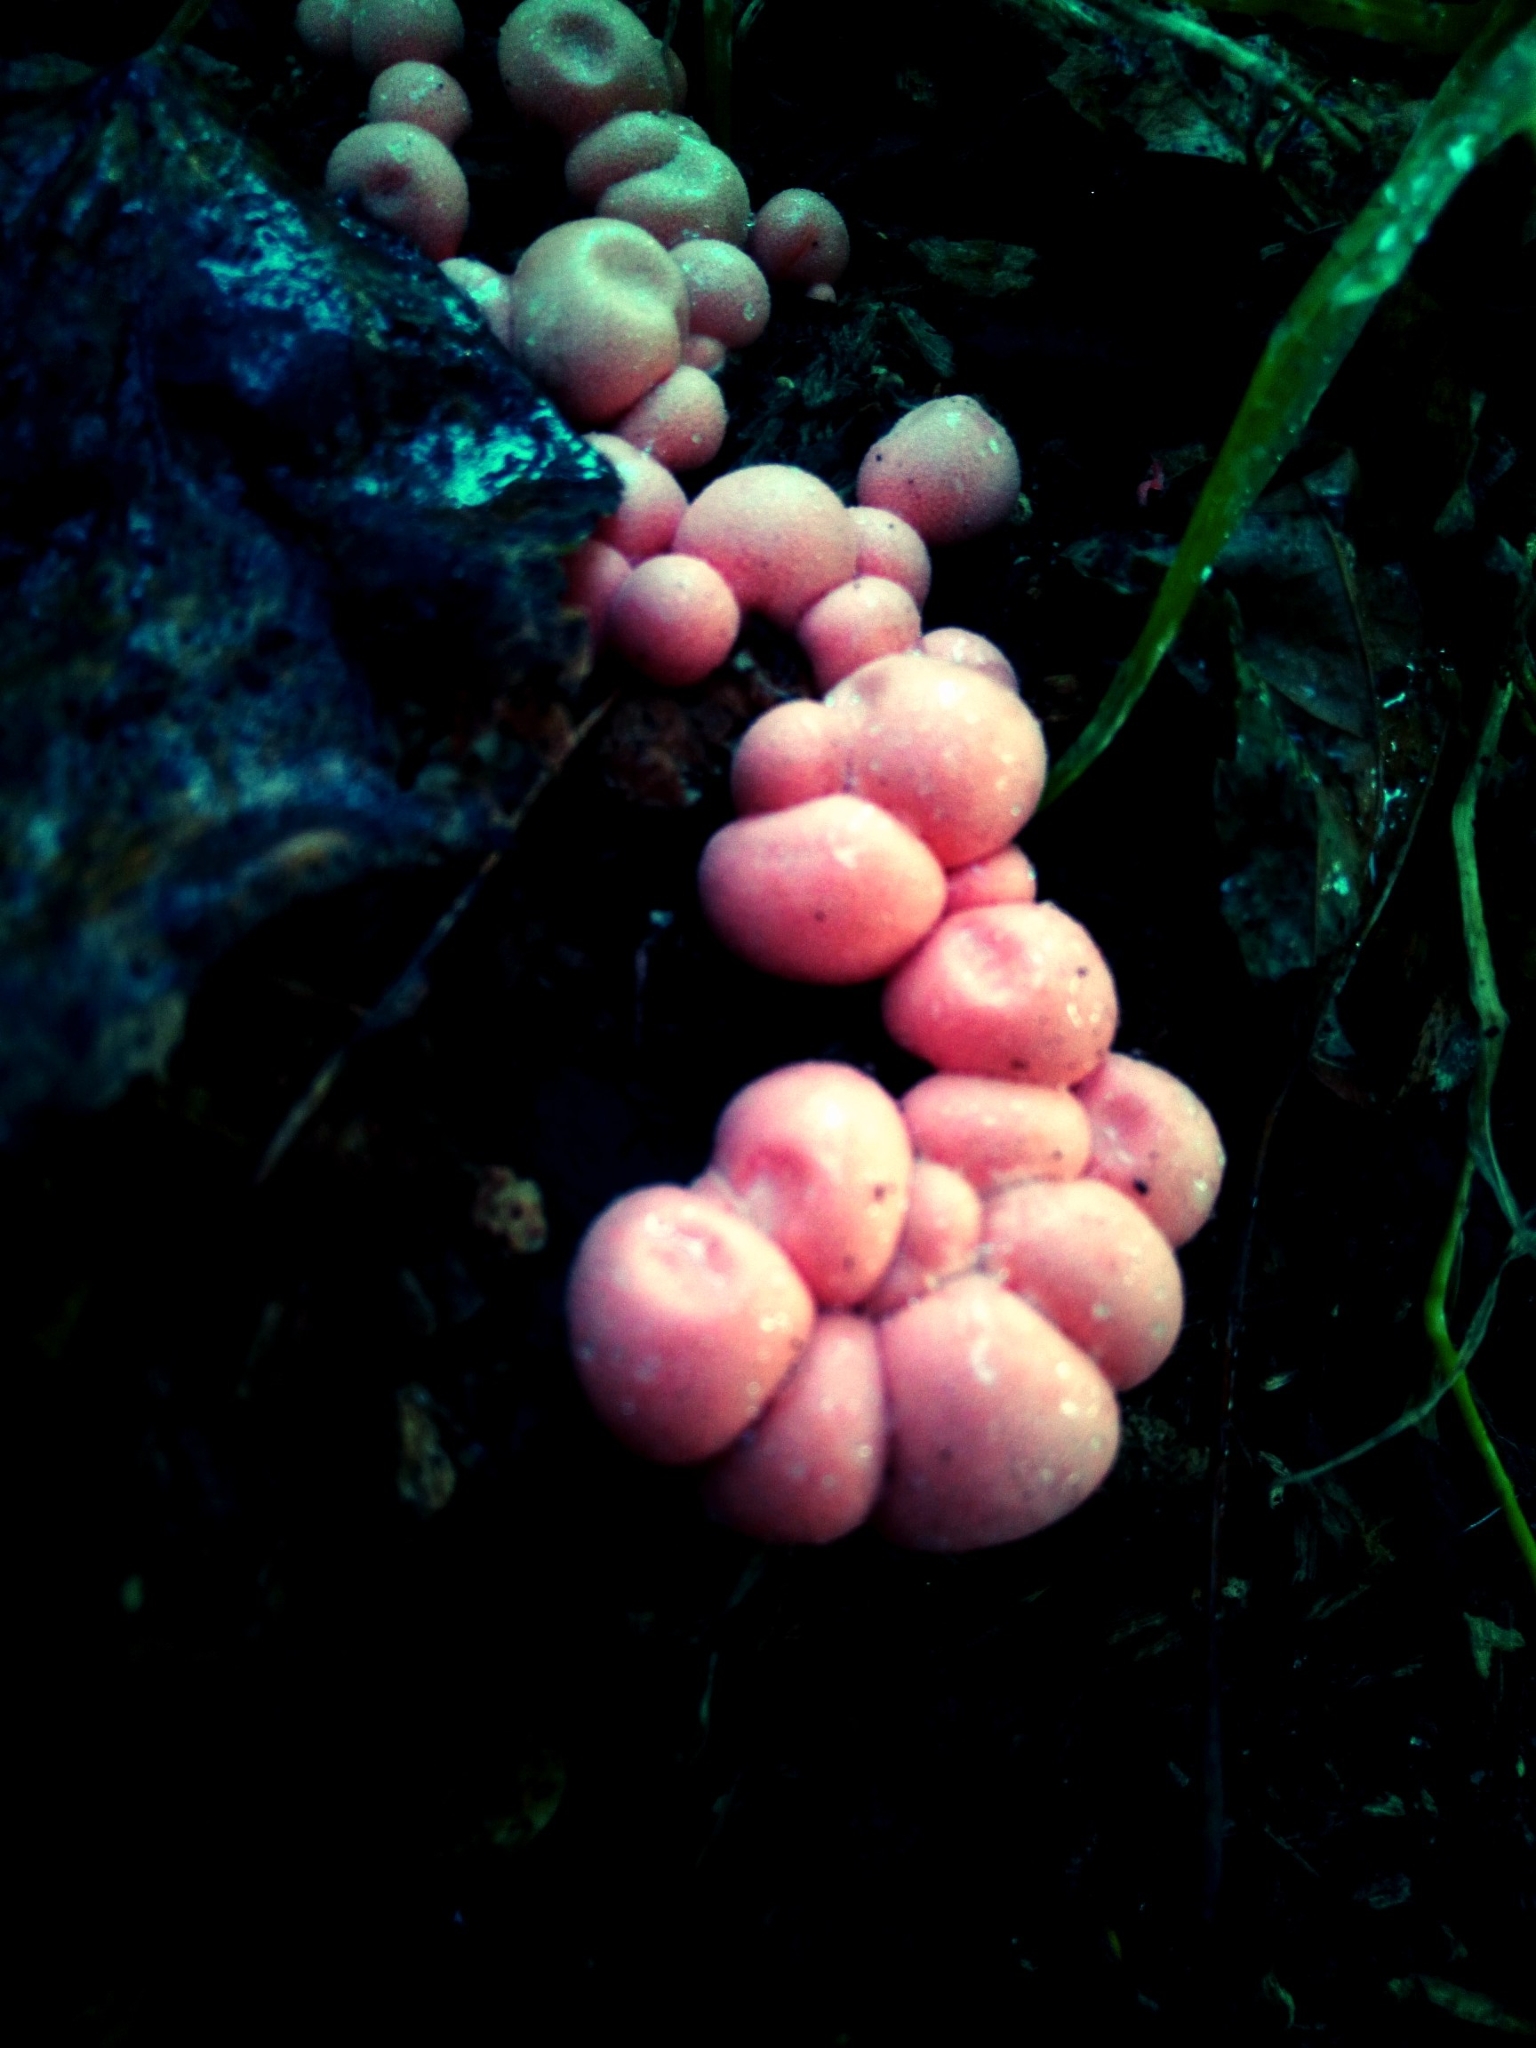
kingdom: Protozoa
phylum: Mycetozoa
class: Myxomycetes
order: Cribrariales
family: Tubiferaceae
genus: Lycogala
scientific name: Lycogala epidendrum
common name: Wolf's milk
